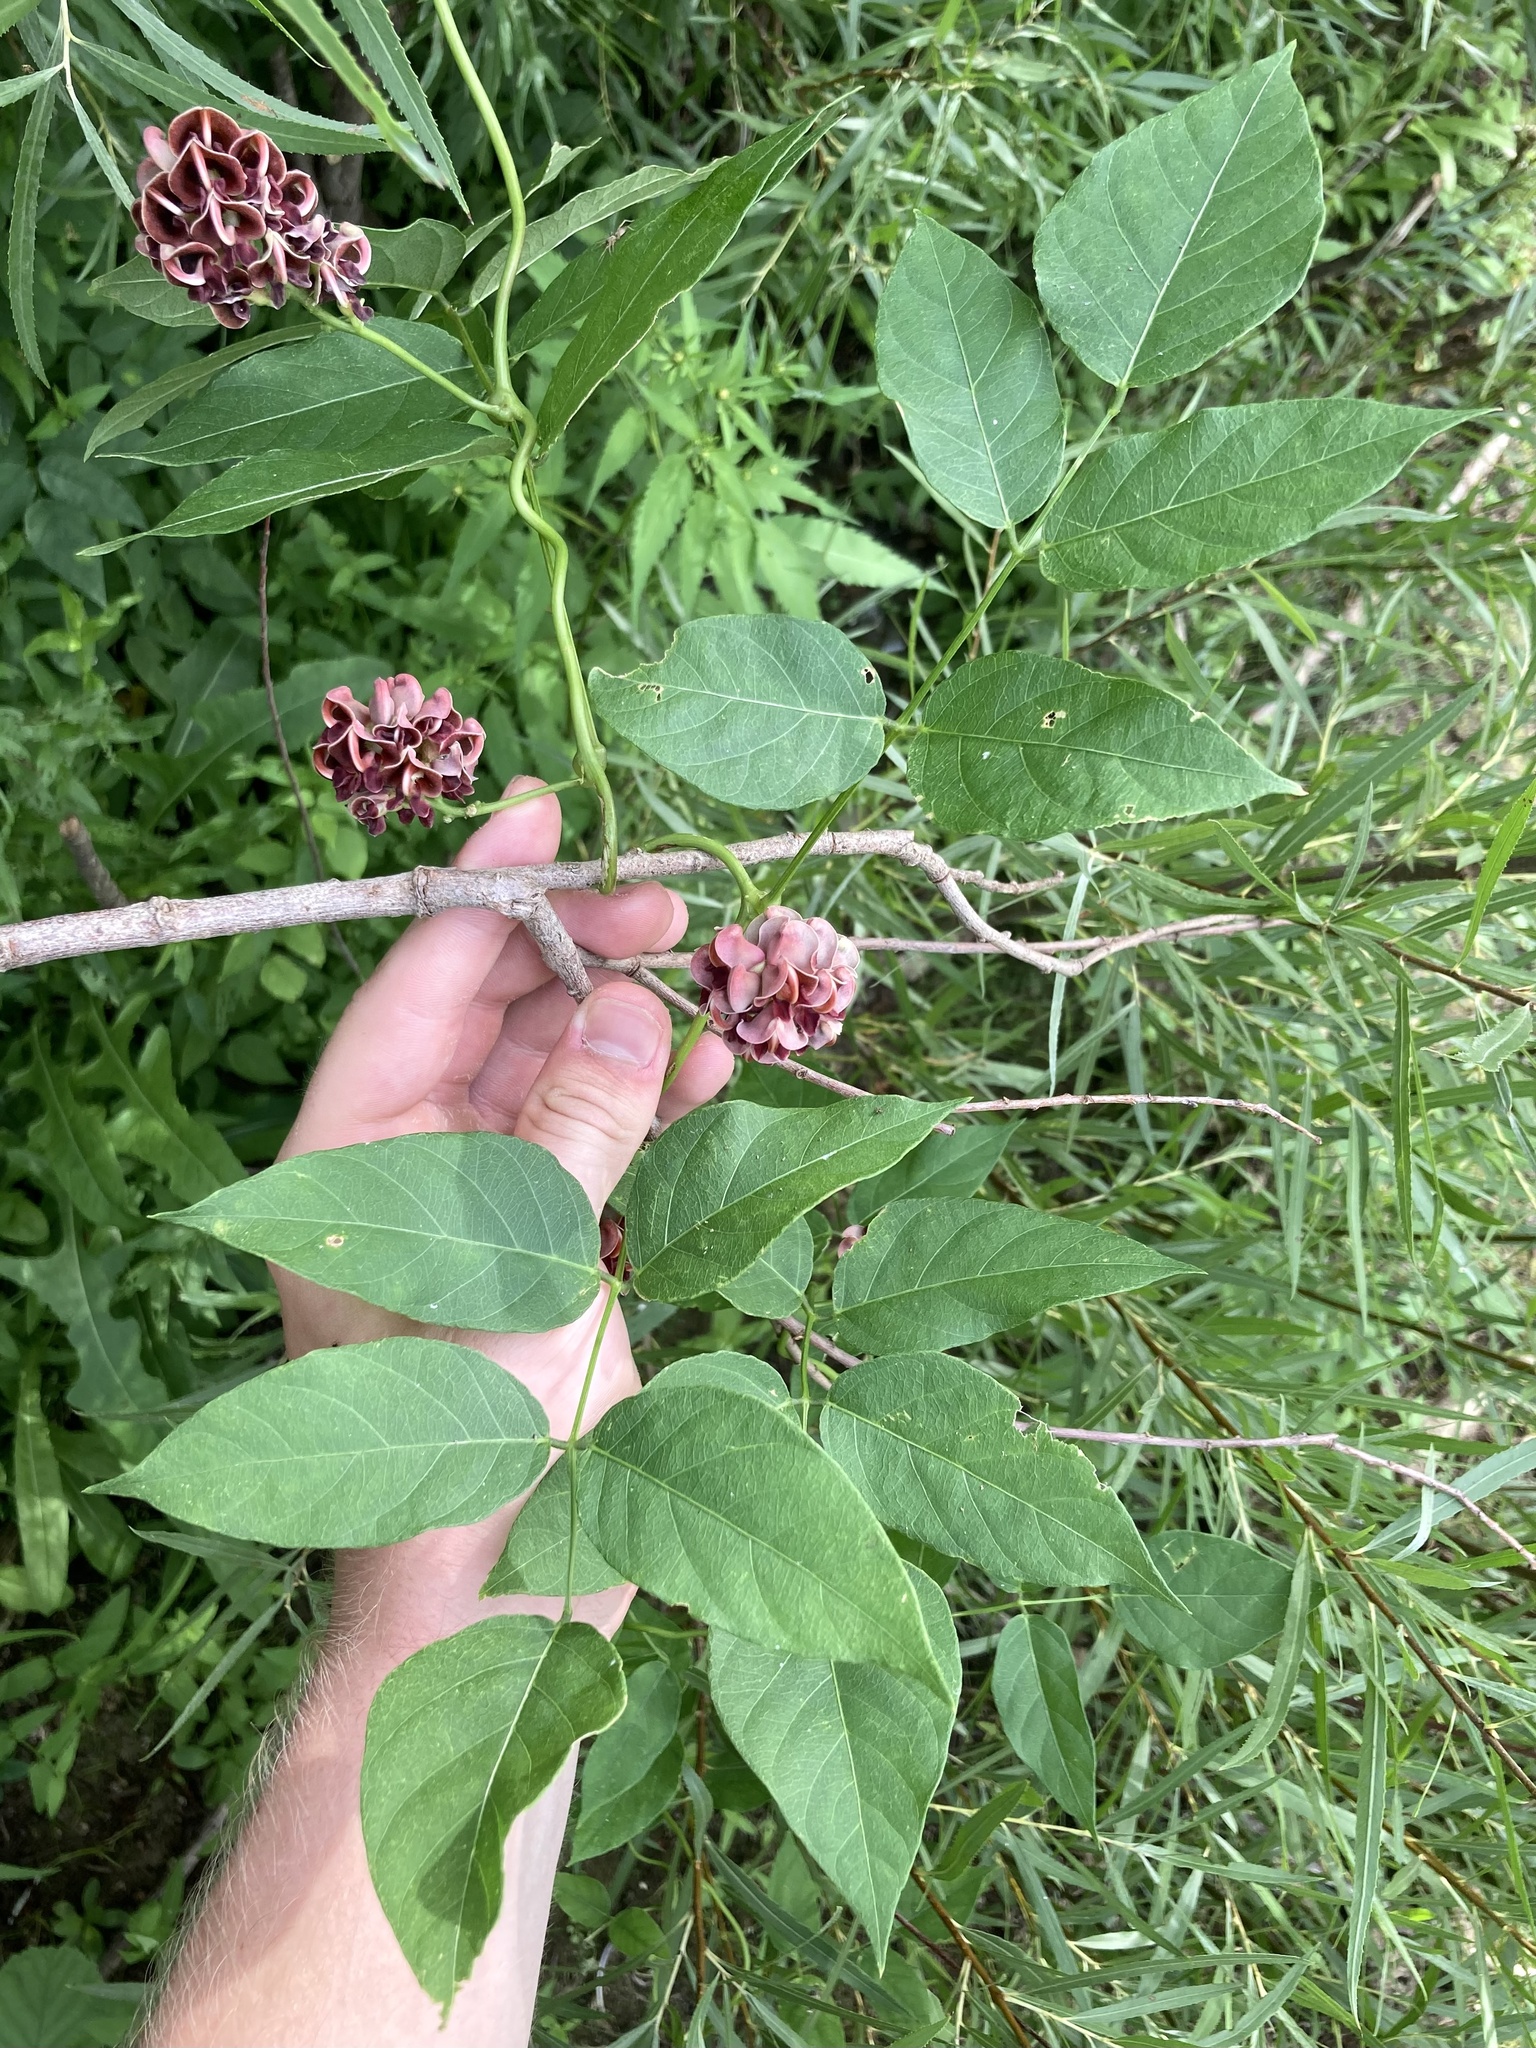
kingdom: Plantae
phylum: Tracheophyta
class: Magnoliopsida
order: Fabales
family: Fabaceae
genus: Apios
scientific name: Apios americana
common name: American potato-bean
